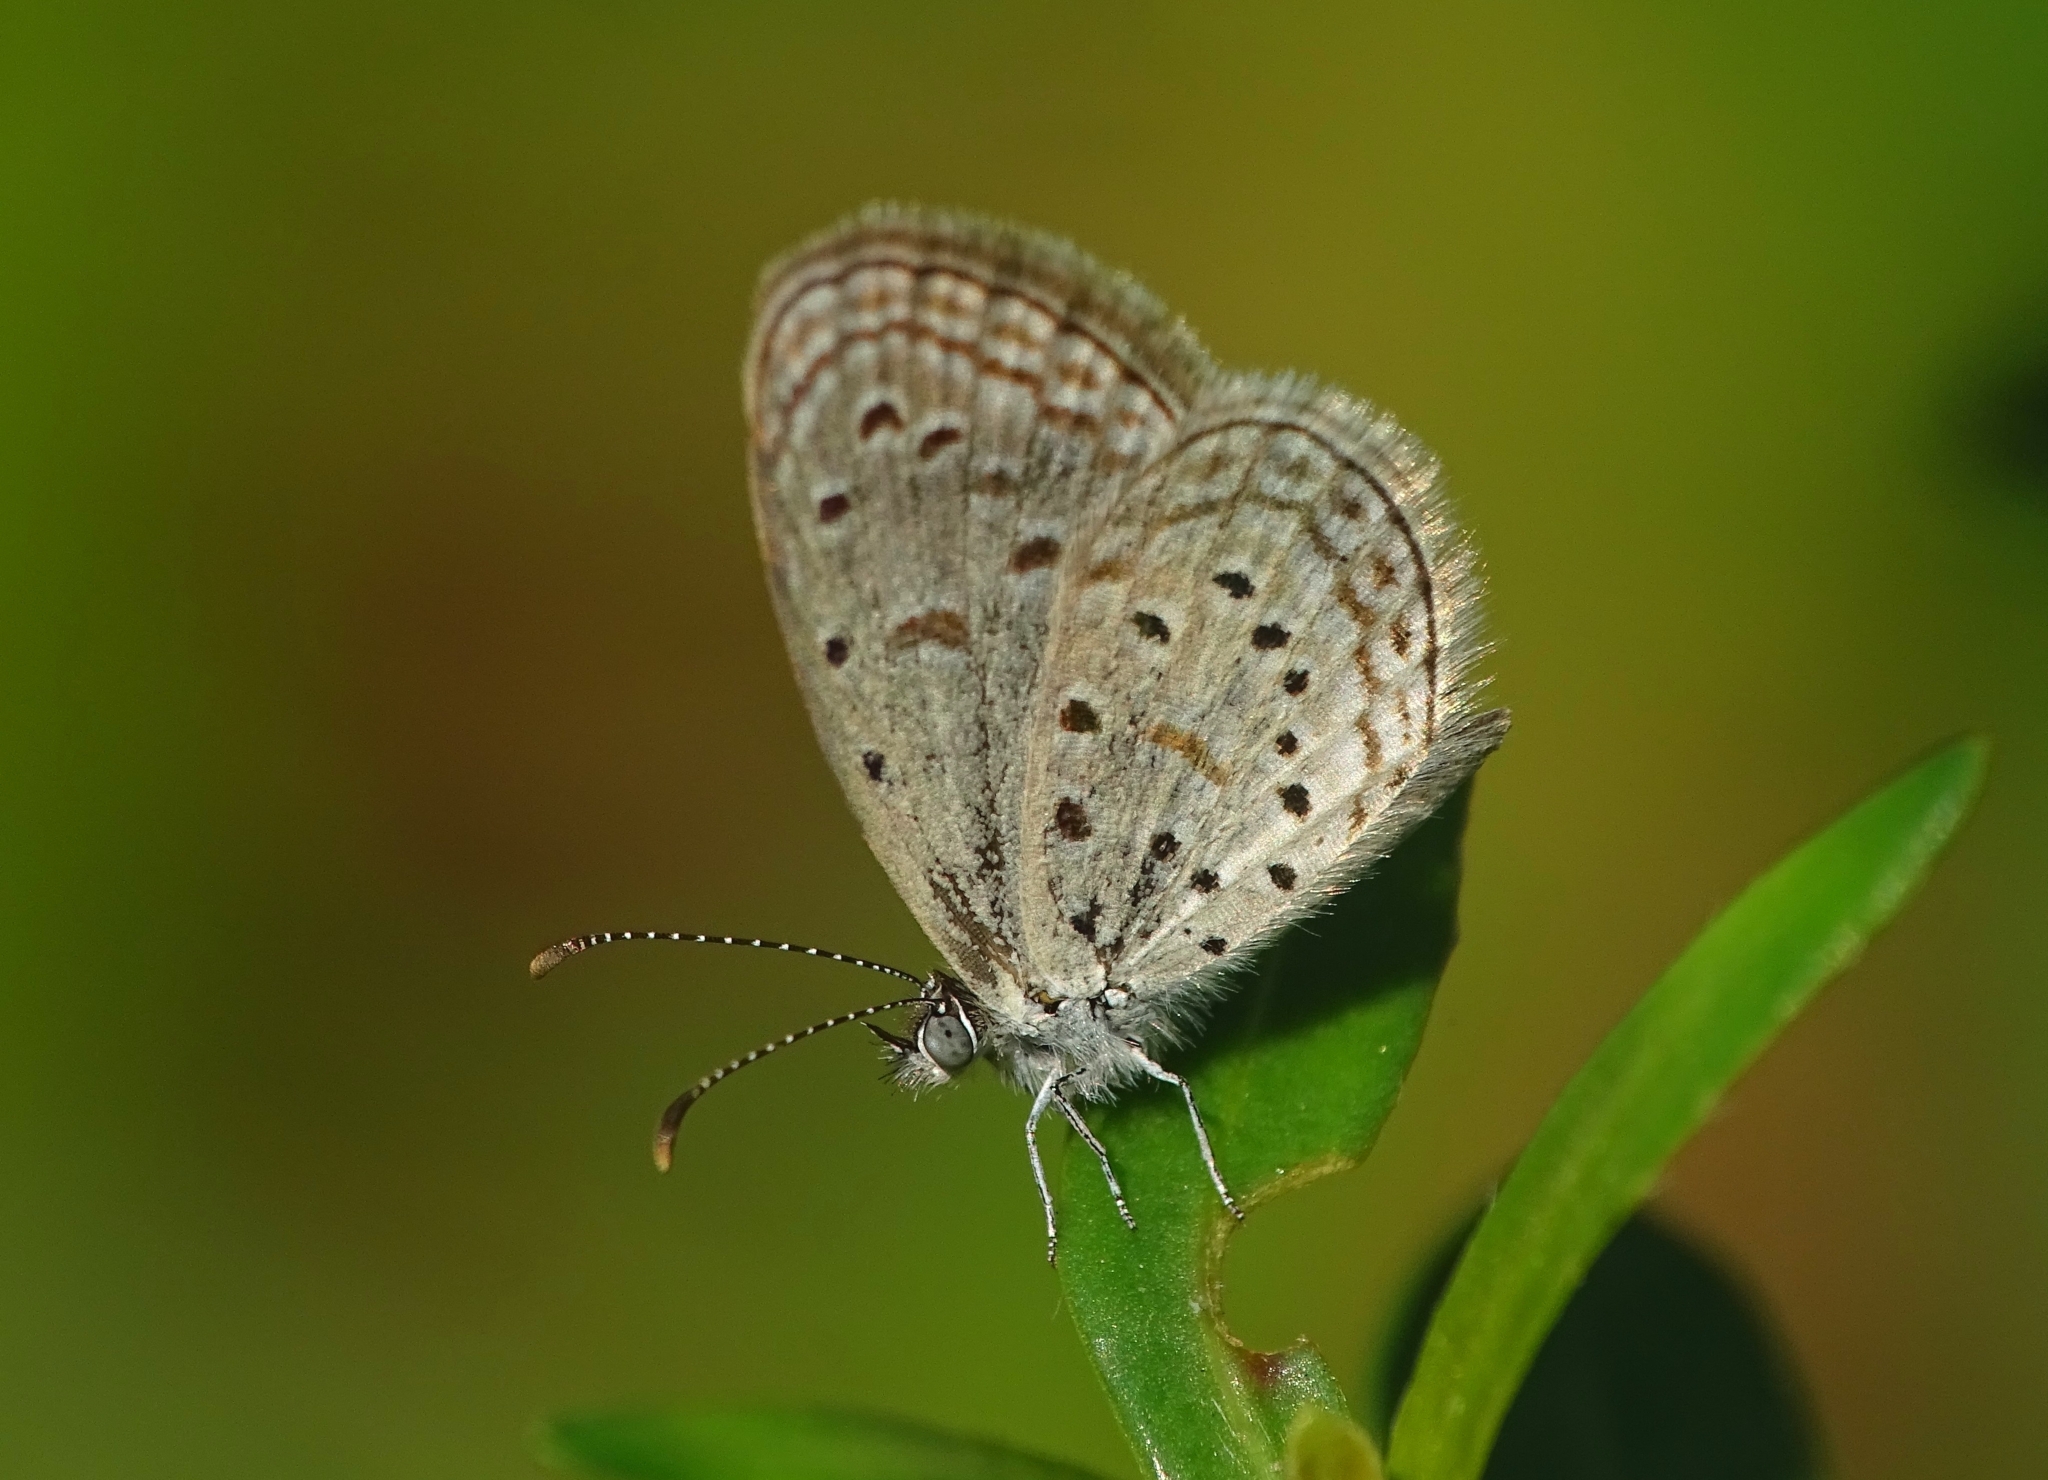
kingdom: Animalia
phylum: Arthropoda
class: Insecta
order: Lepidoptera
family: Lycaenidae
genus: Zizula
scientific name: Zizula hylax
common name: Gaika blue
